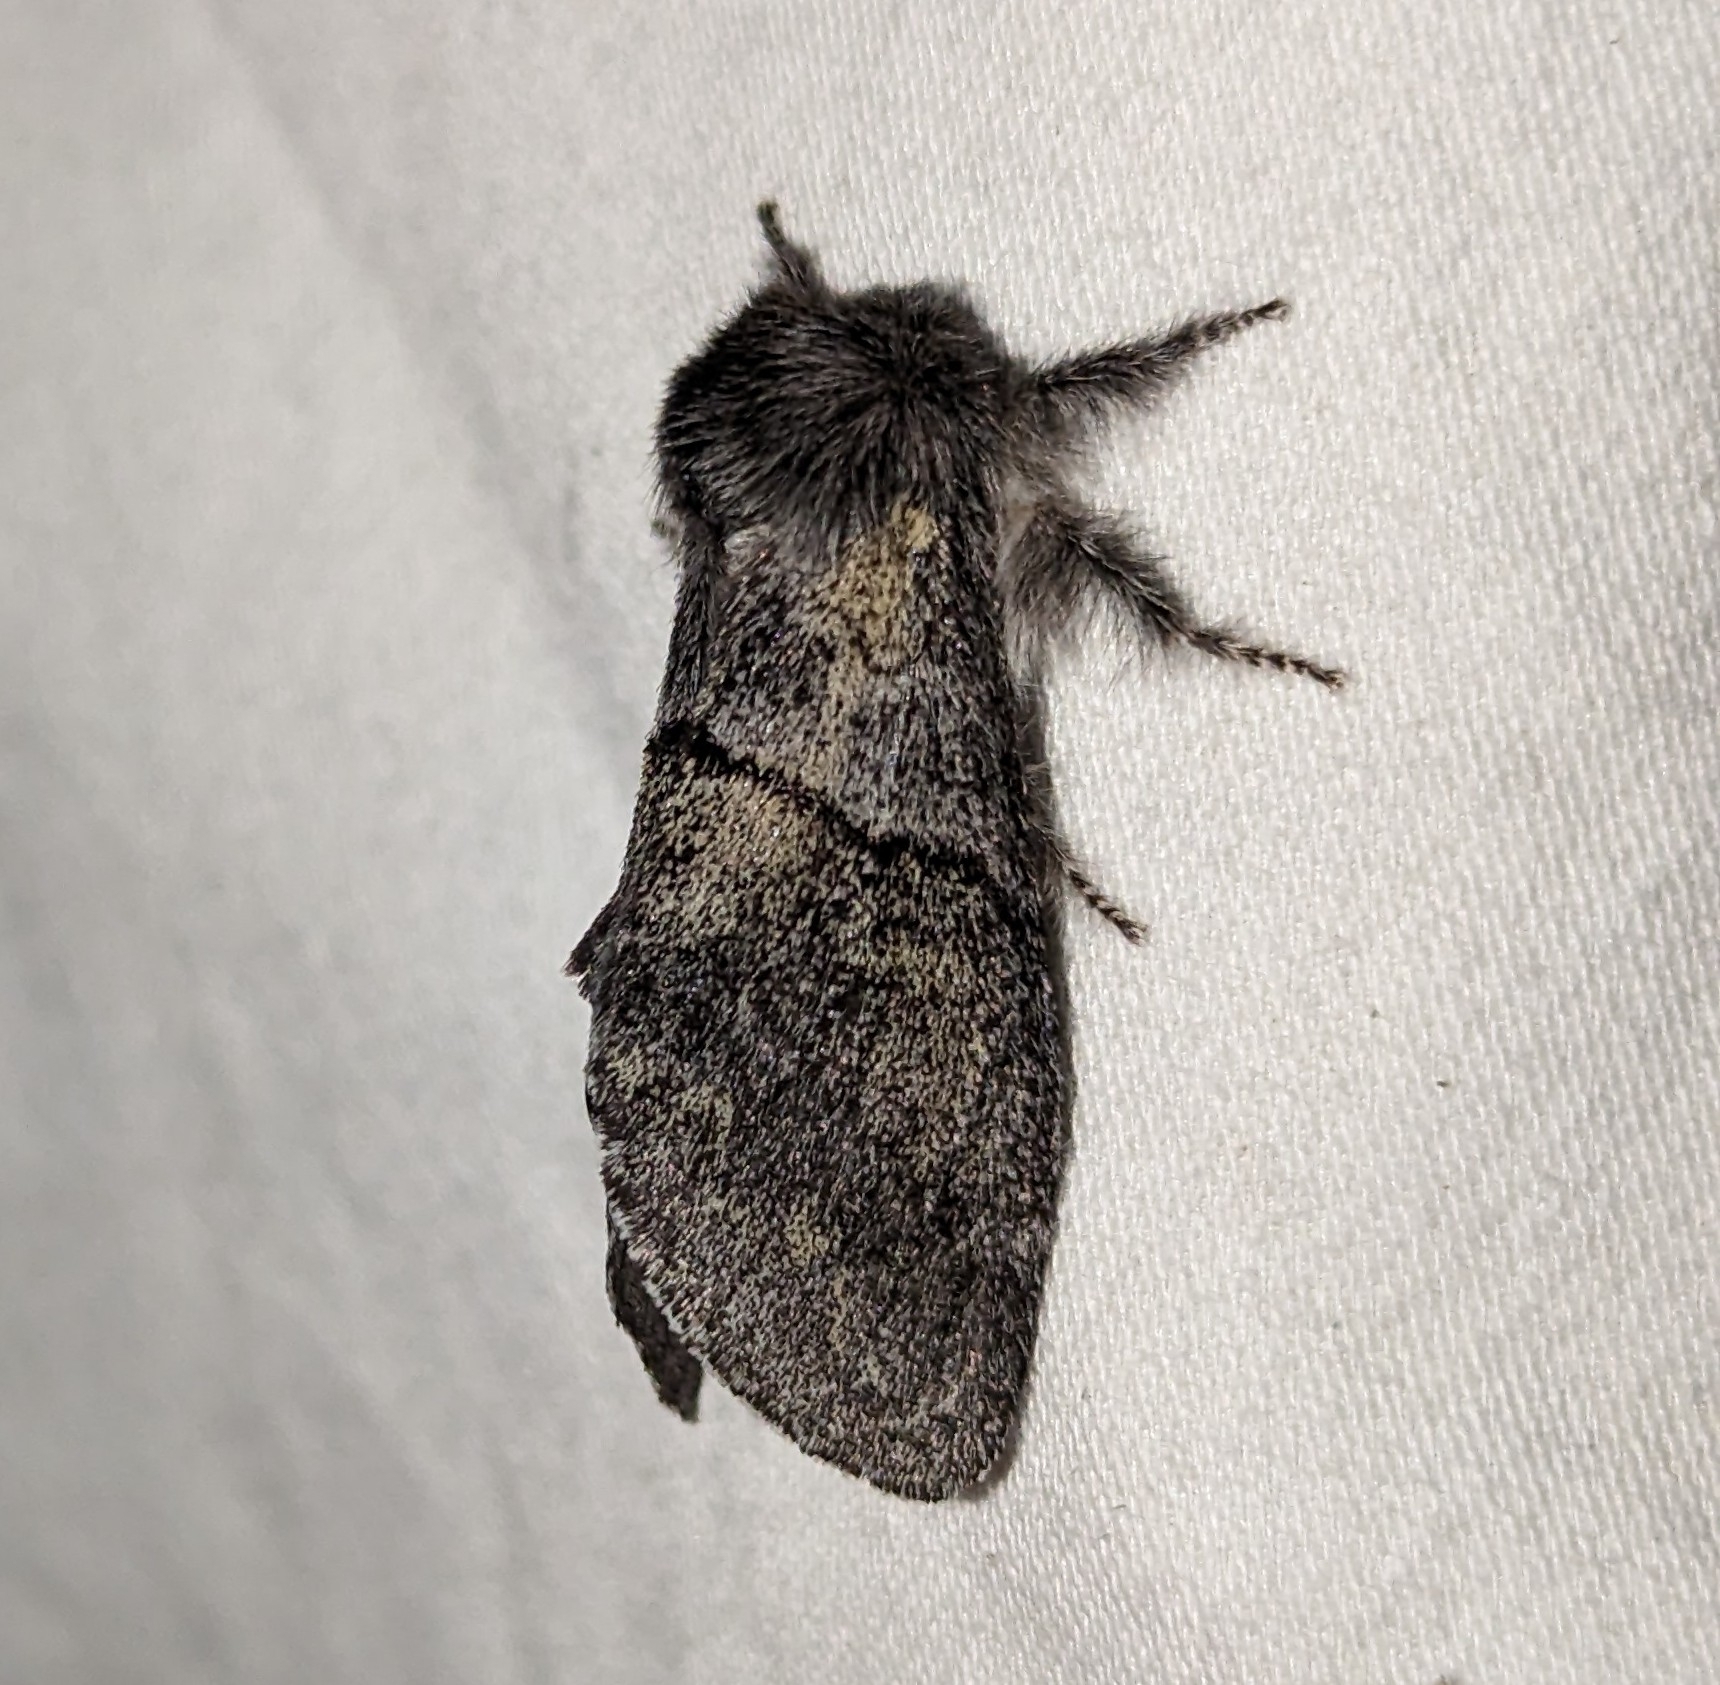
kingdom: Animalia
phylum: Arthropoda
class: Insecta
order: Lepidoptera
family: Notodontidae
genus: Gluphisia
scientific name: Gluphisia septentrionis
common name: Common gluphisia
